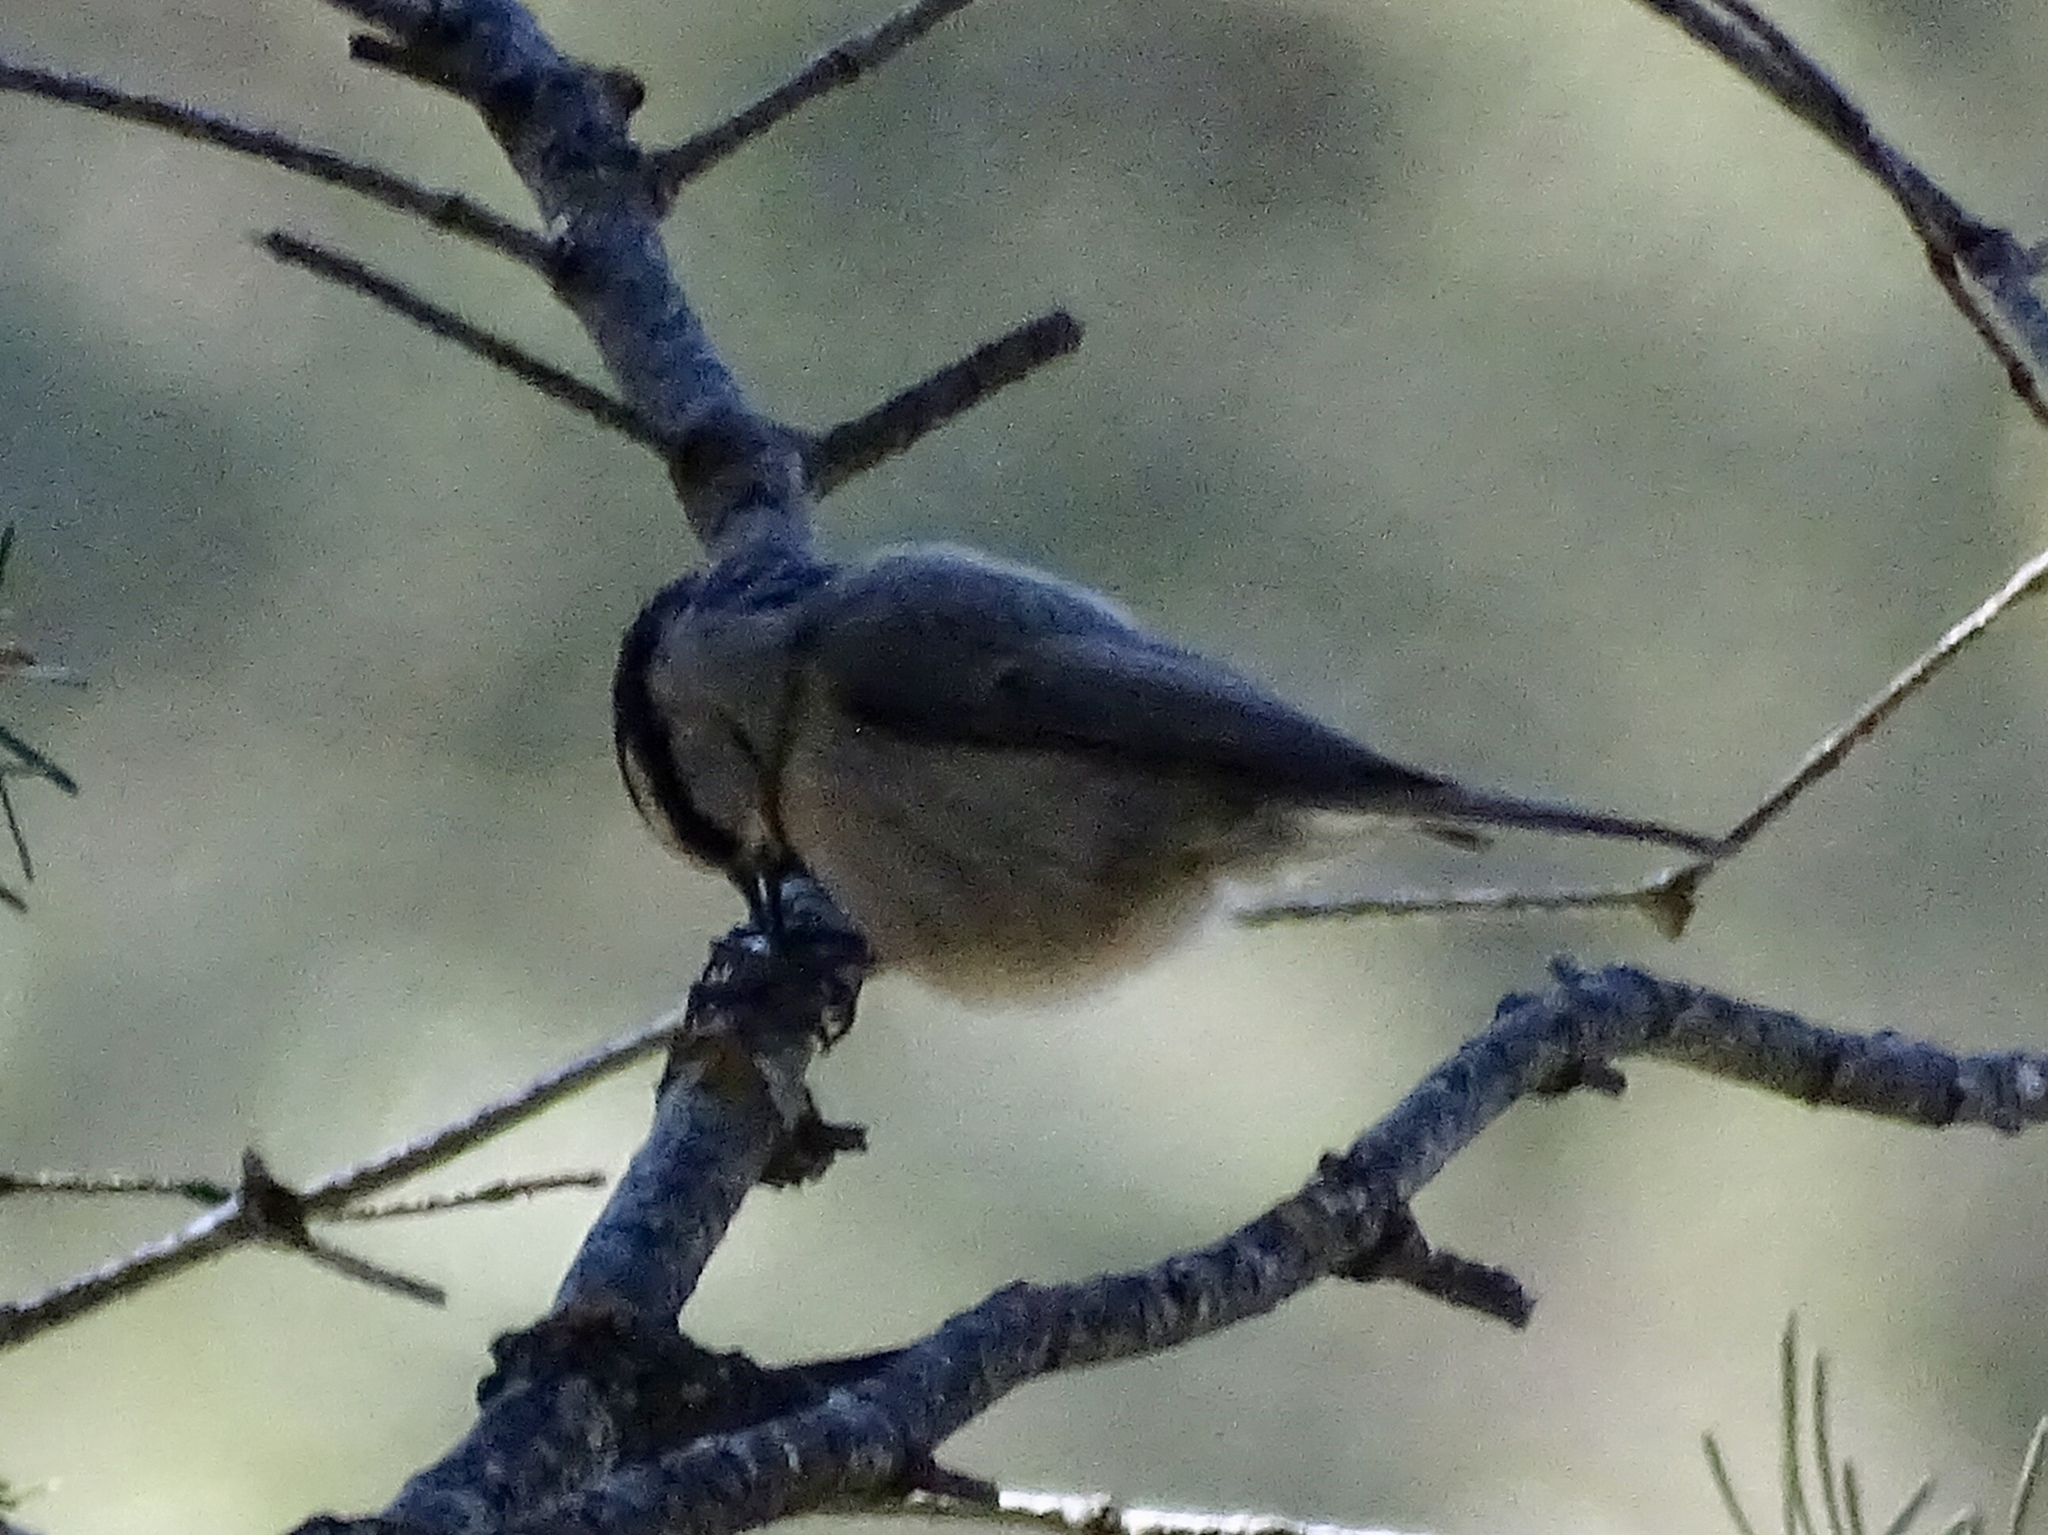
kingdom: Animalia
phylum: Chordata
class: Aves
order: Passeriformes
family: Paridae
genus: Poecile
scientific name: Poecile gambeli
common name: Mountain chickadee
